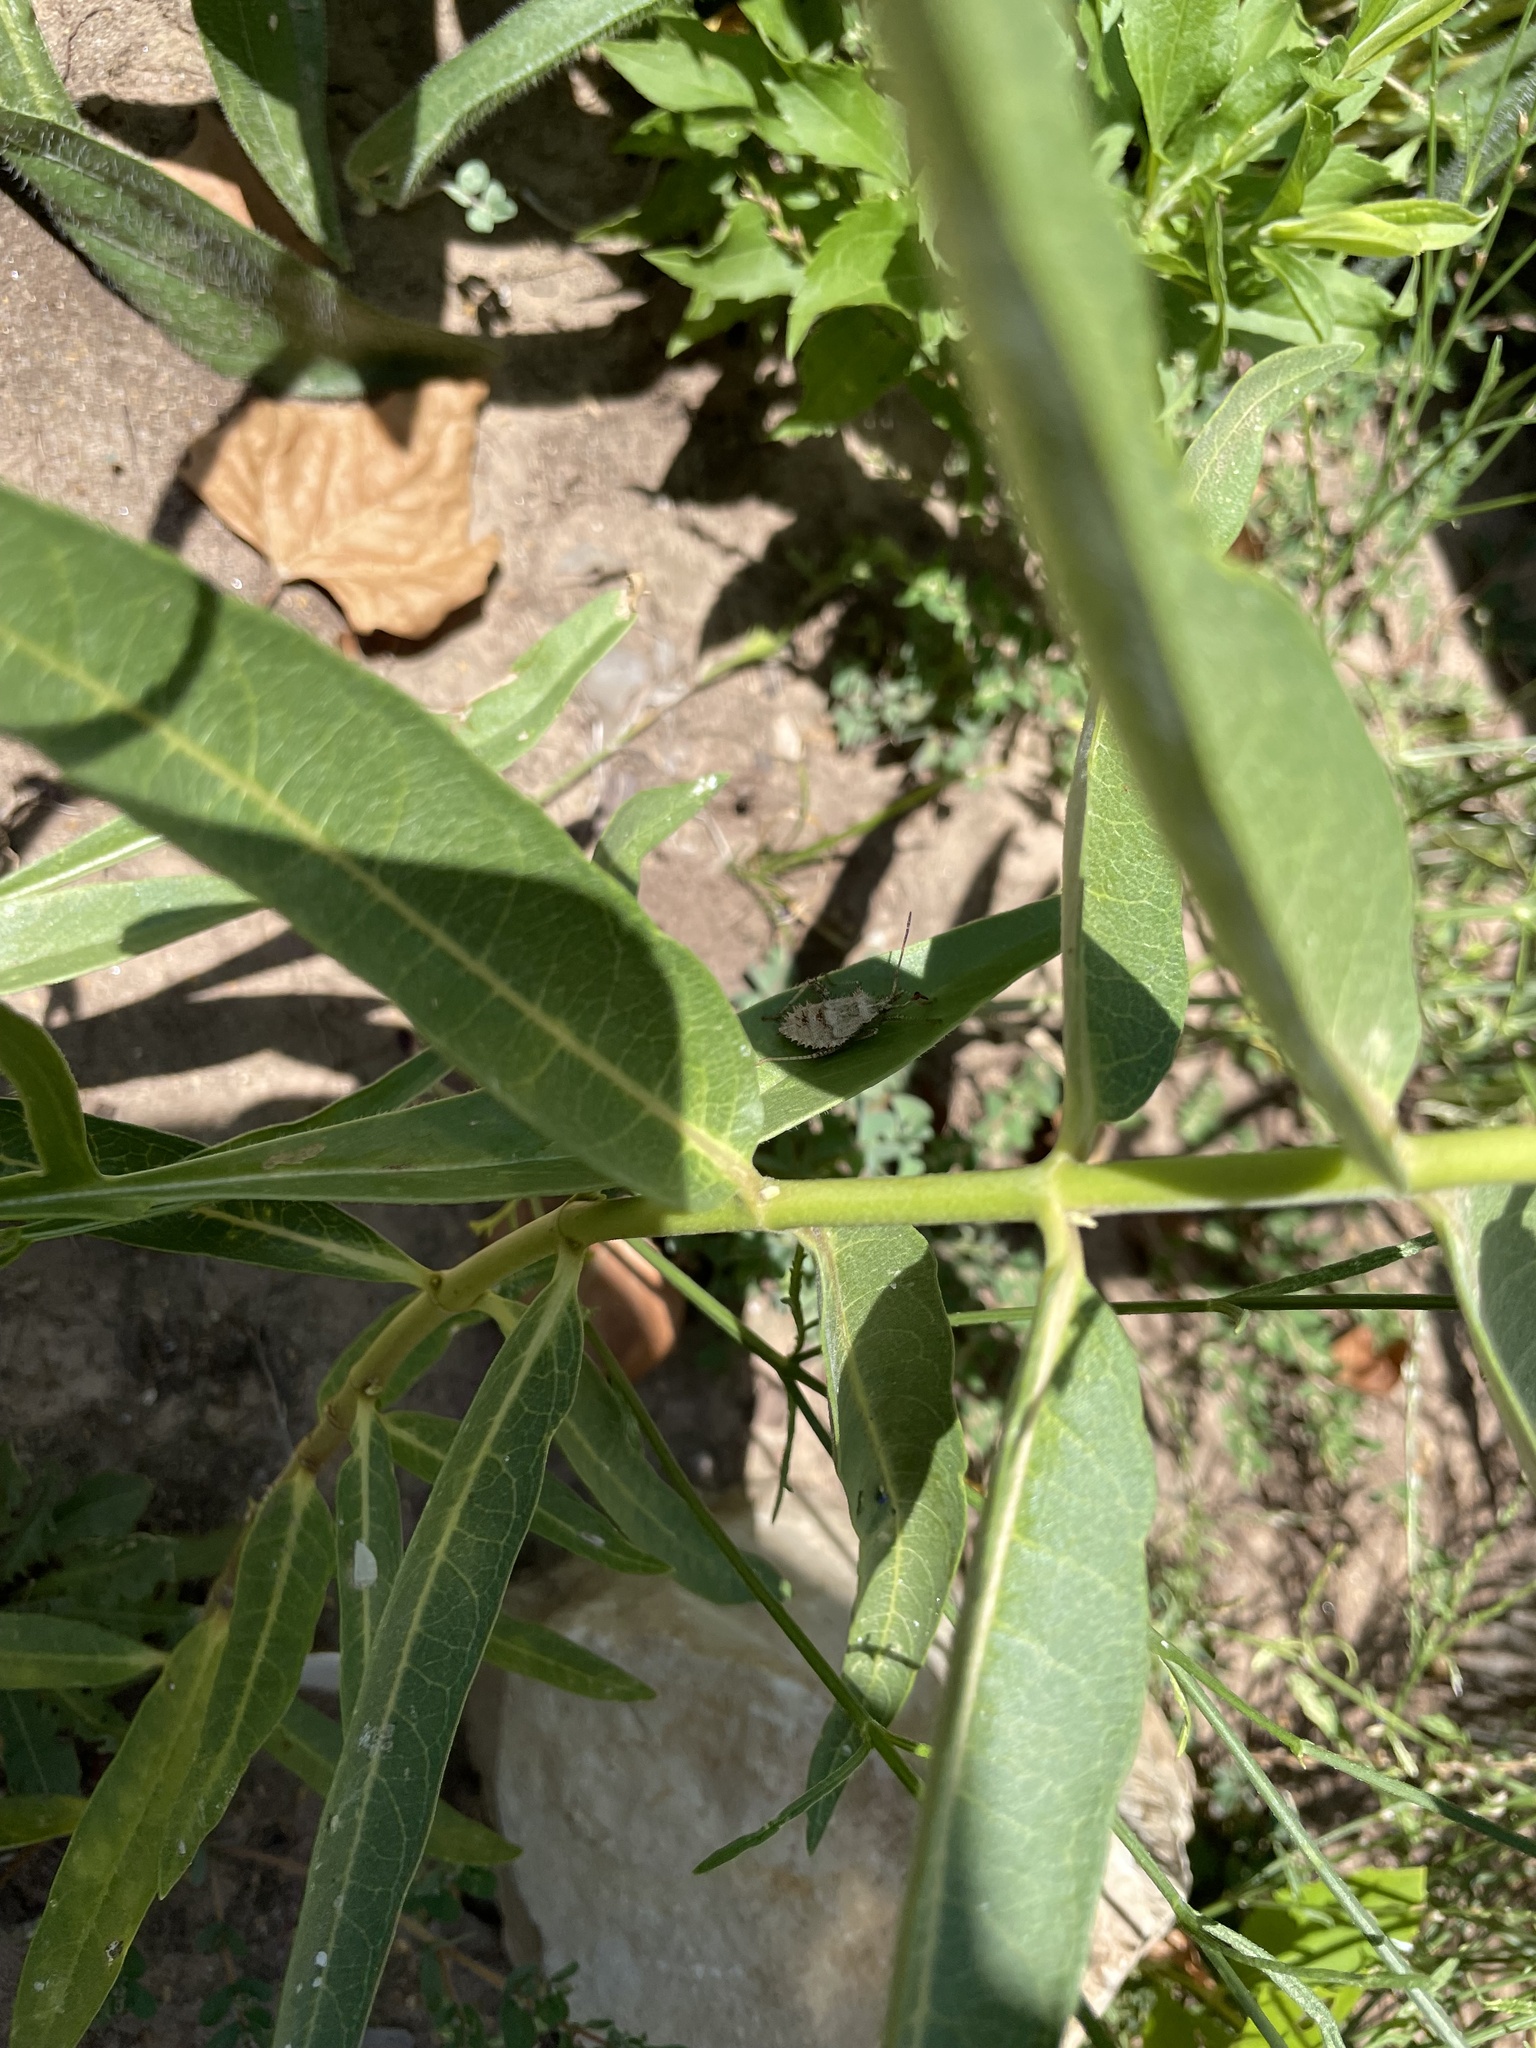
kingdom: Animalia
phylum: Arthropoda
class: Insecta
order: Hemiptera
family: Coreidae
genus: Euthochtha
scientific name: Euthochtha galeator
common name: Helmeted squash bug
